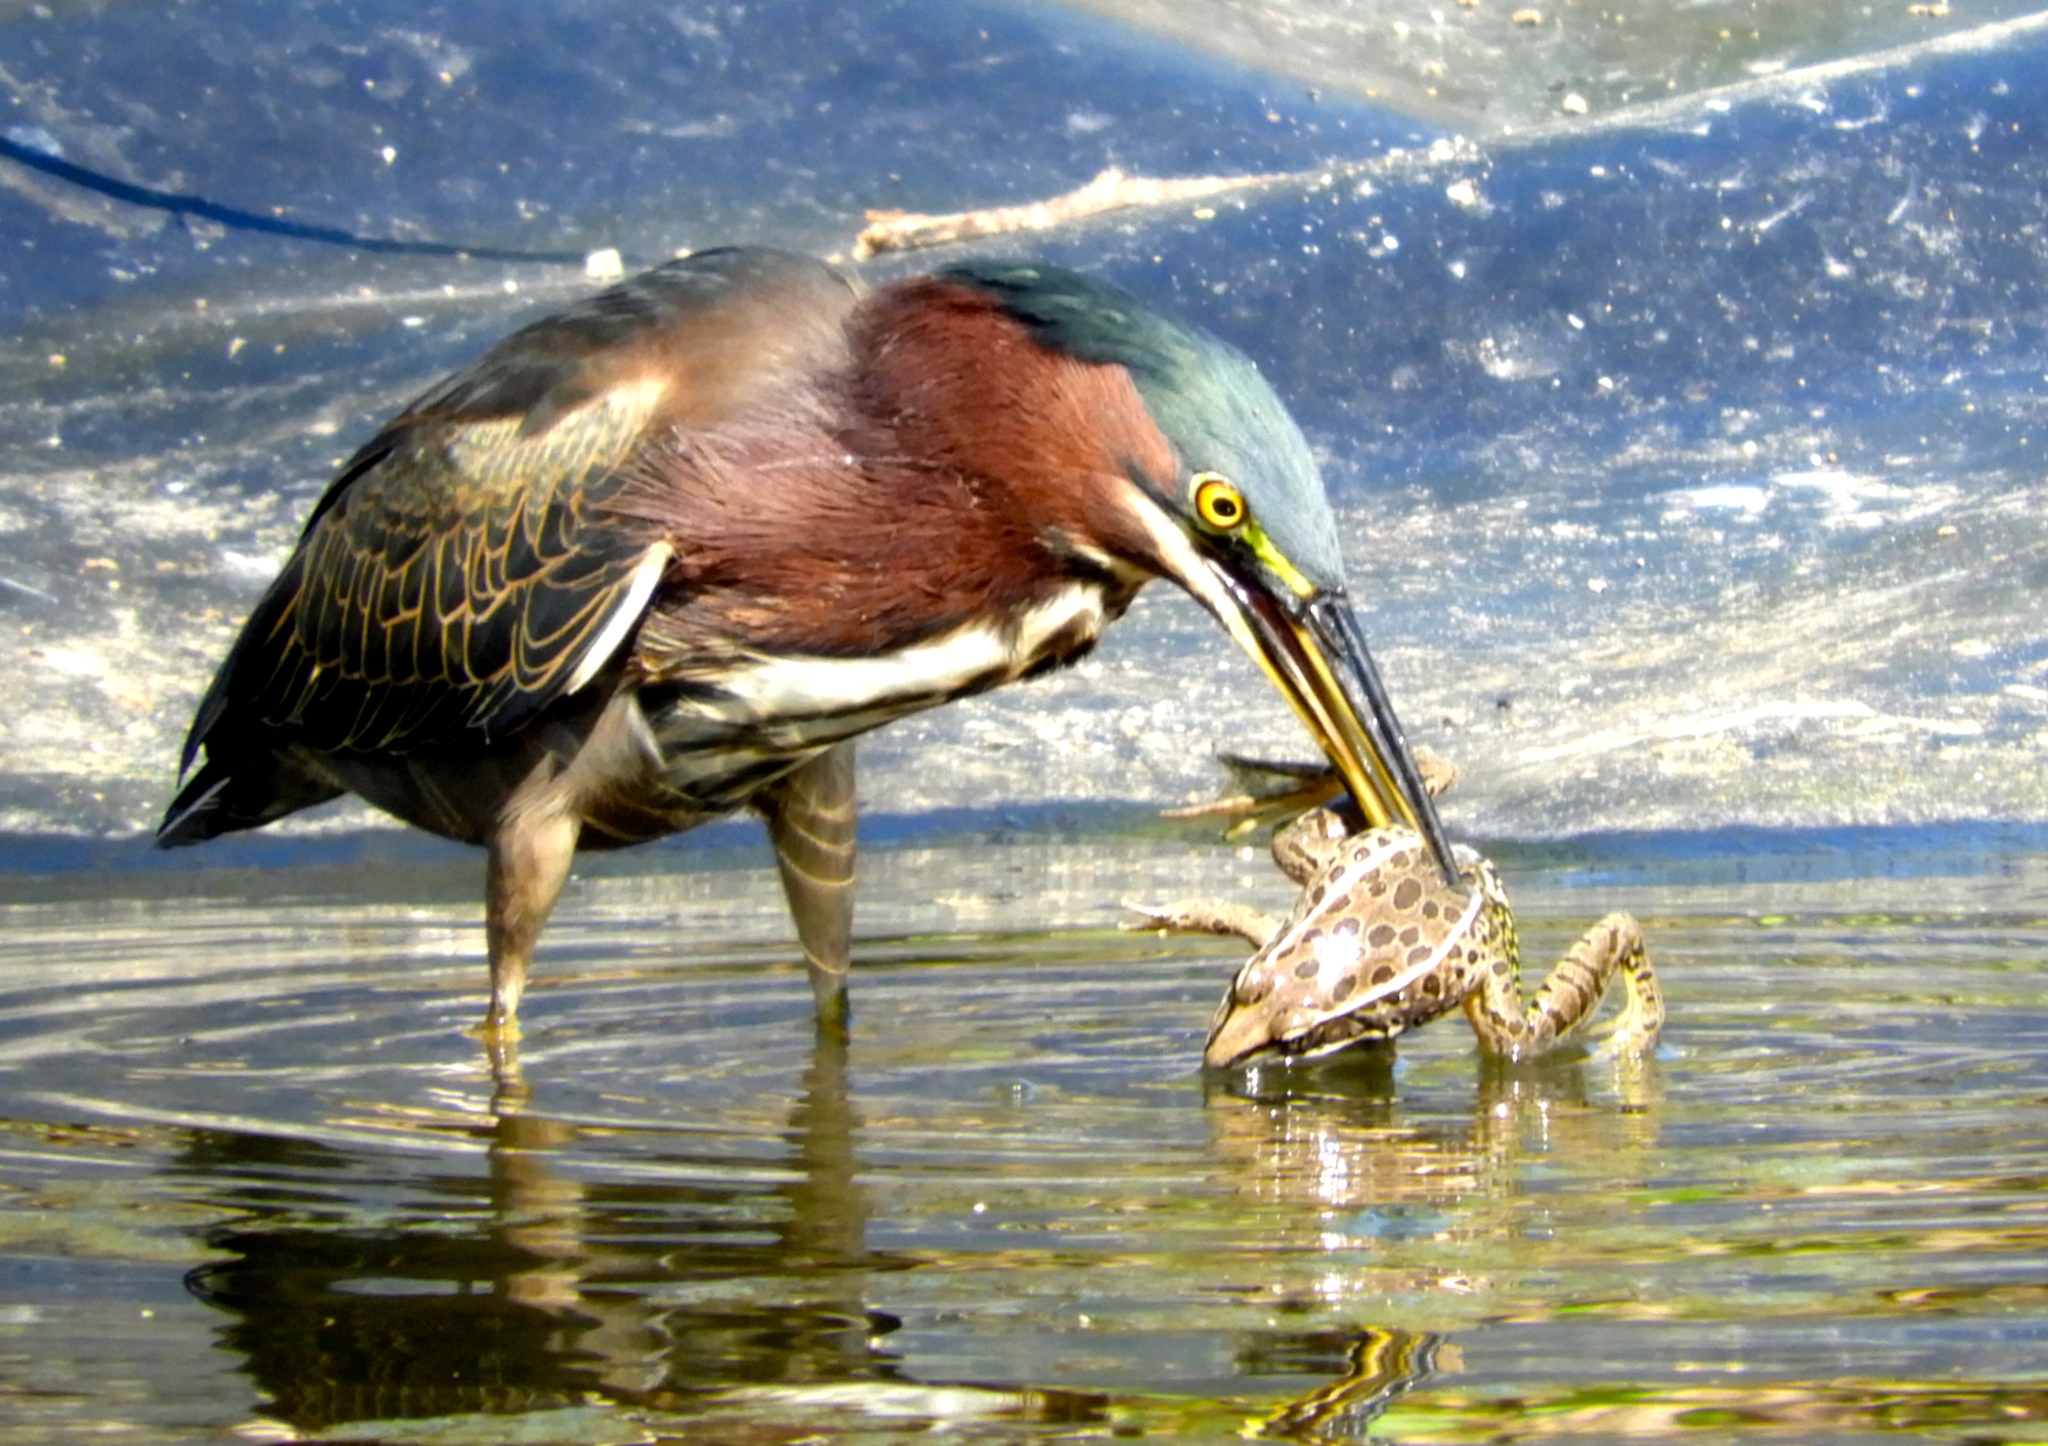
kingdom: Animalia
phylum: Chordata
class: Amphibia
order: Anura
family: Ranidae
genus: Lithobates
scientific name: Lithobates forreri
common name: Forrer's grass frog
